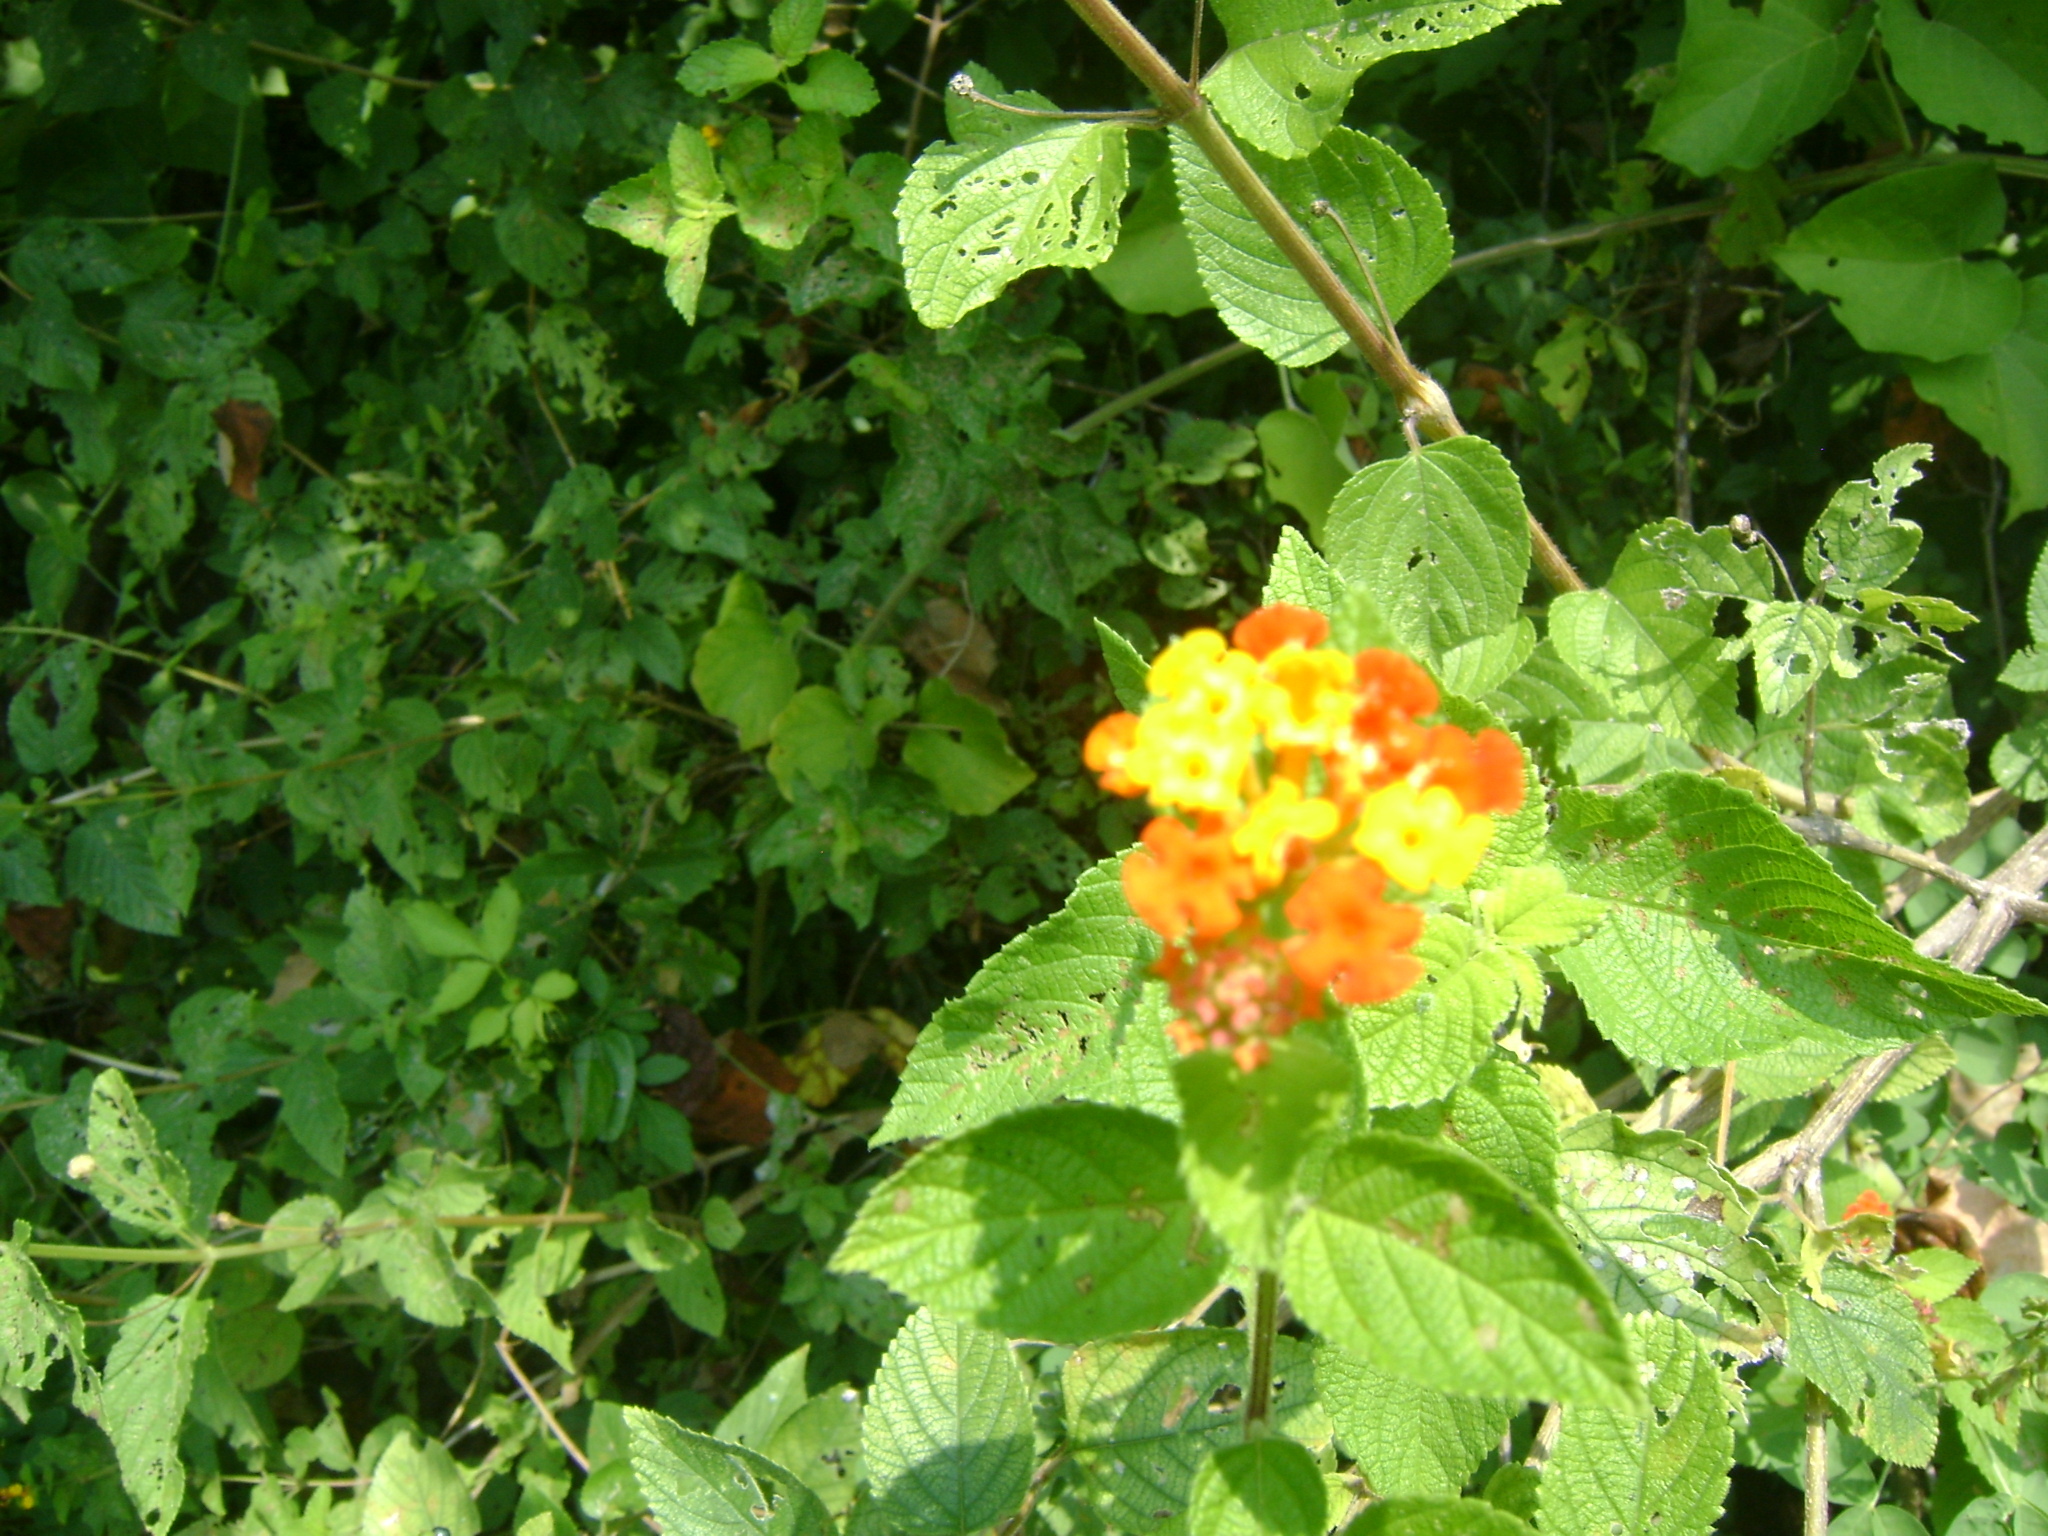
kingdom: Plantae
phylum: Tracheophyta
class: Magnoliopsida
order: Lamiales
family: Verbenaceae
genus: Lantana
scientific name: Lantana camara
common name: Lantana
